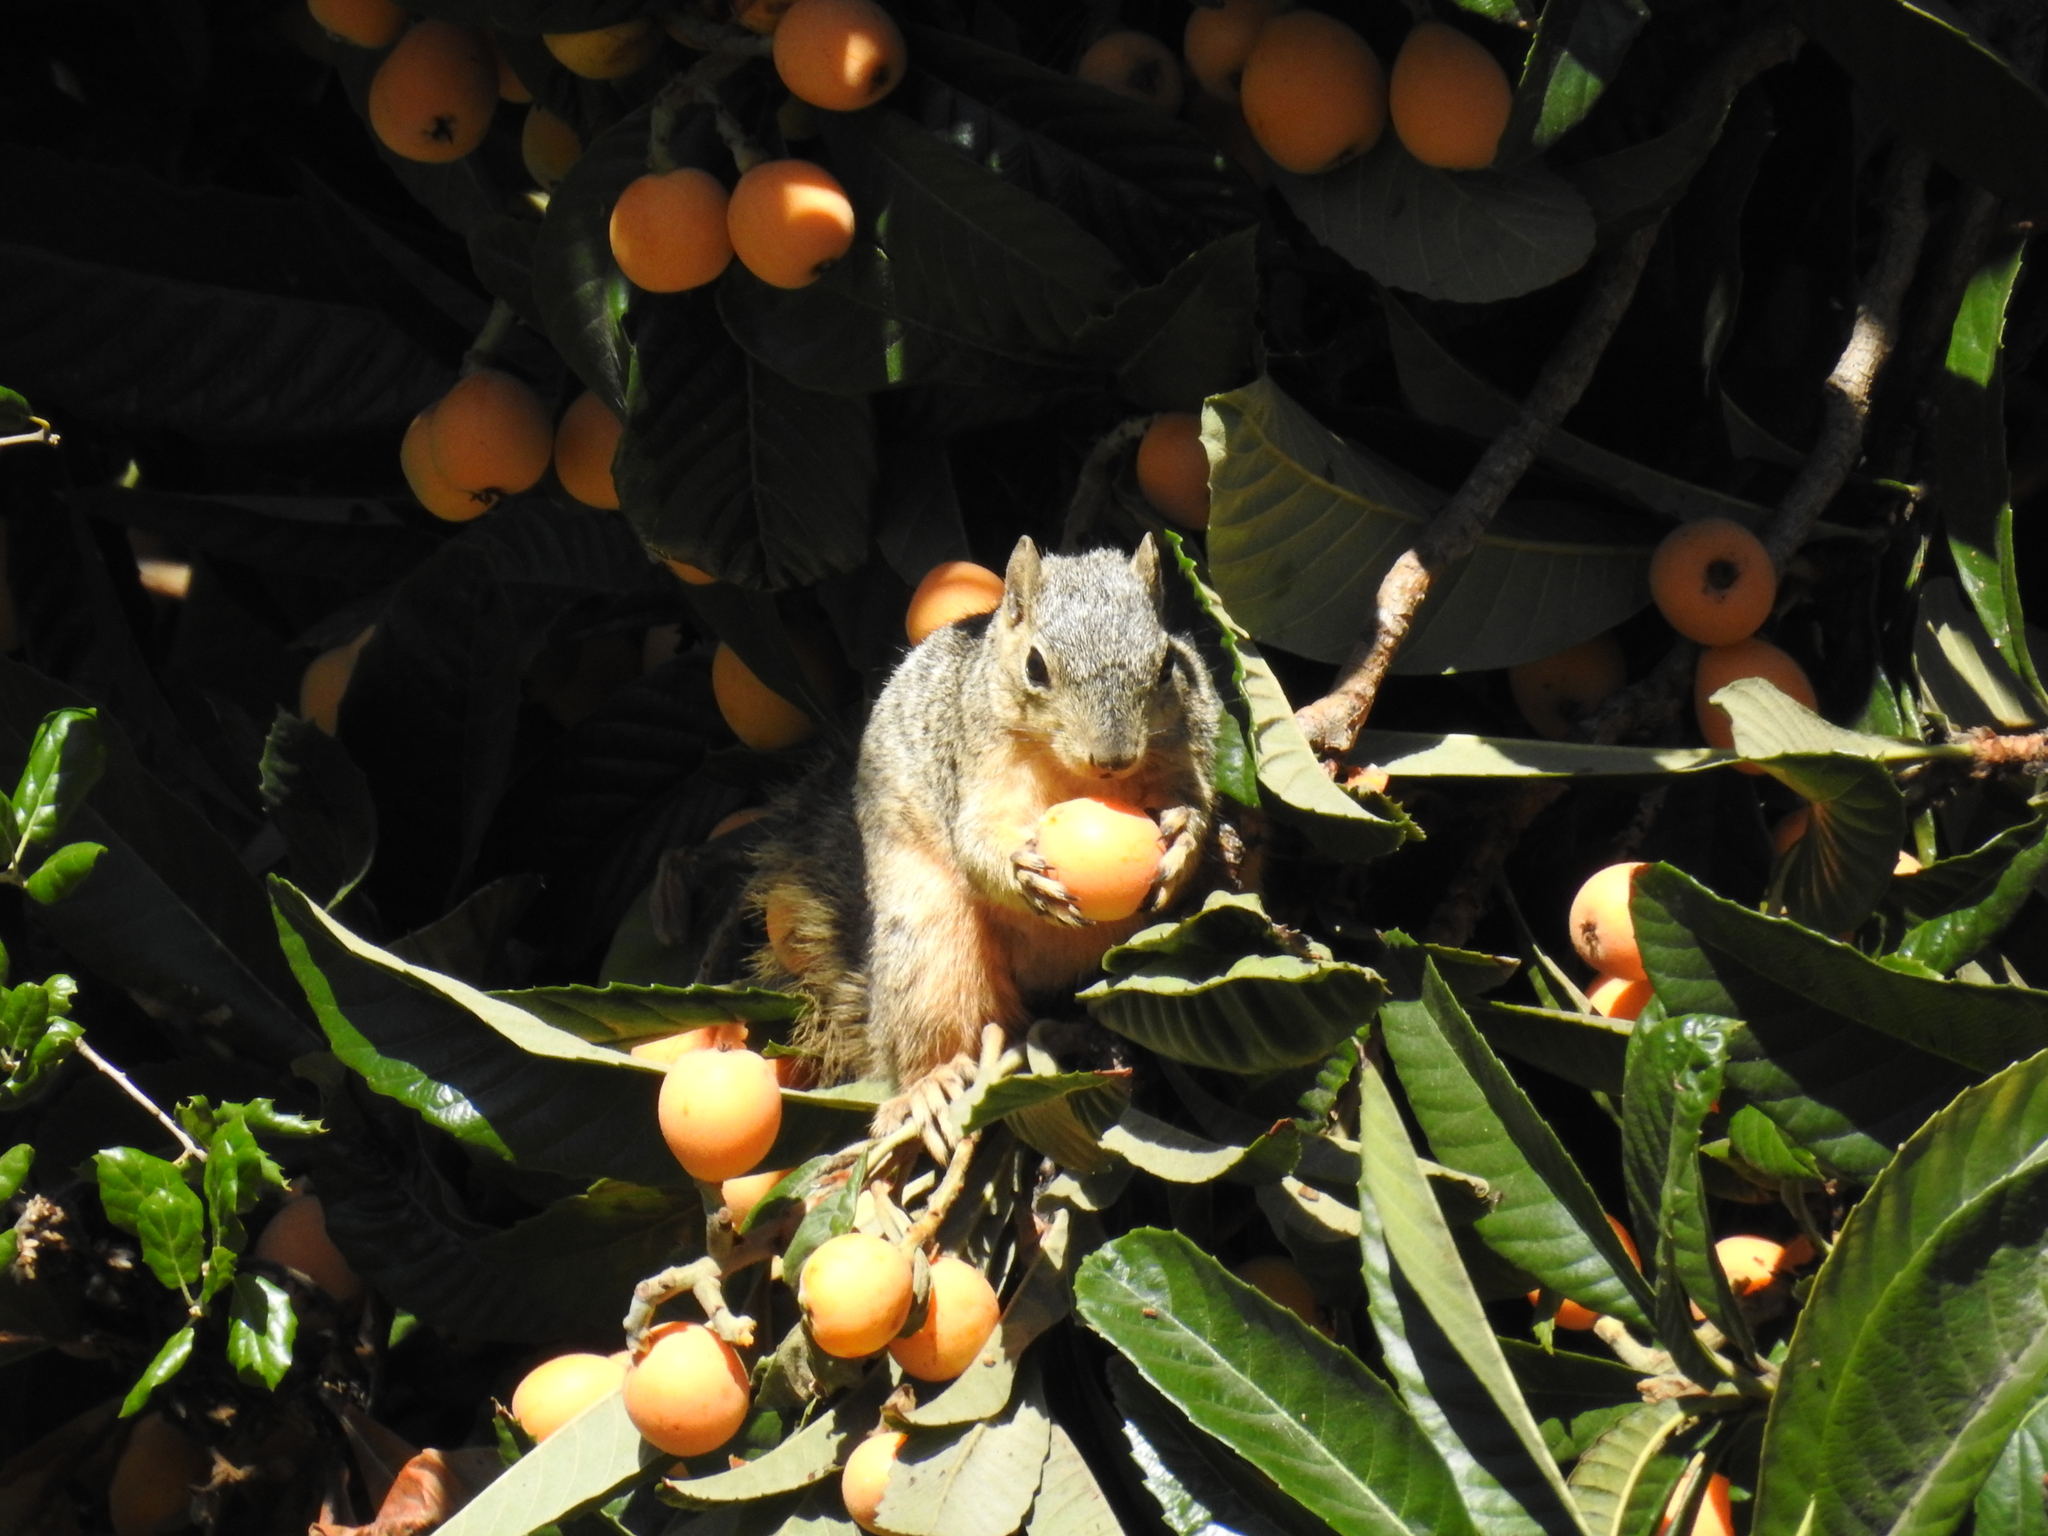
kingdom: Animalia
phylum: Chordata
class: Mammalia
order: Rodentia
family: Sciuridae
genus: Sciurus
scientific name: Sciurus niger
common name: Fox squirrel
